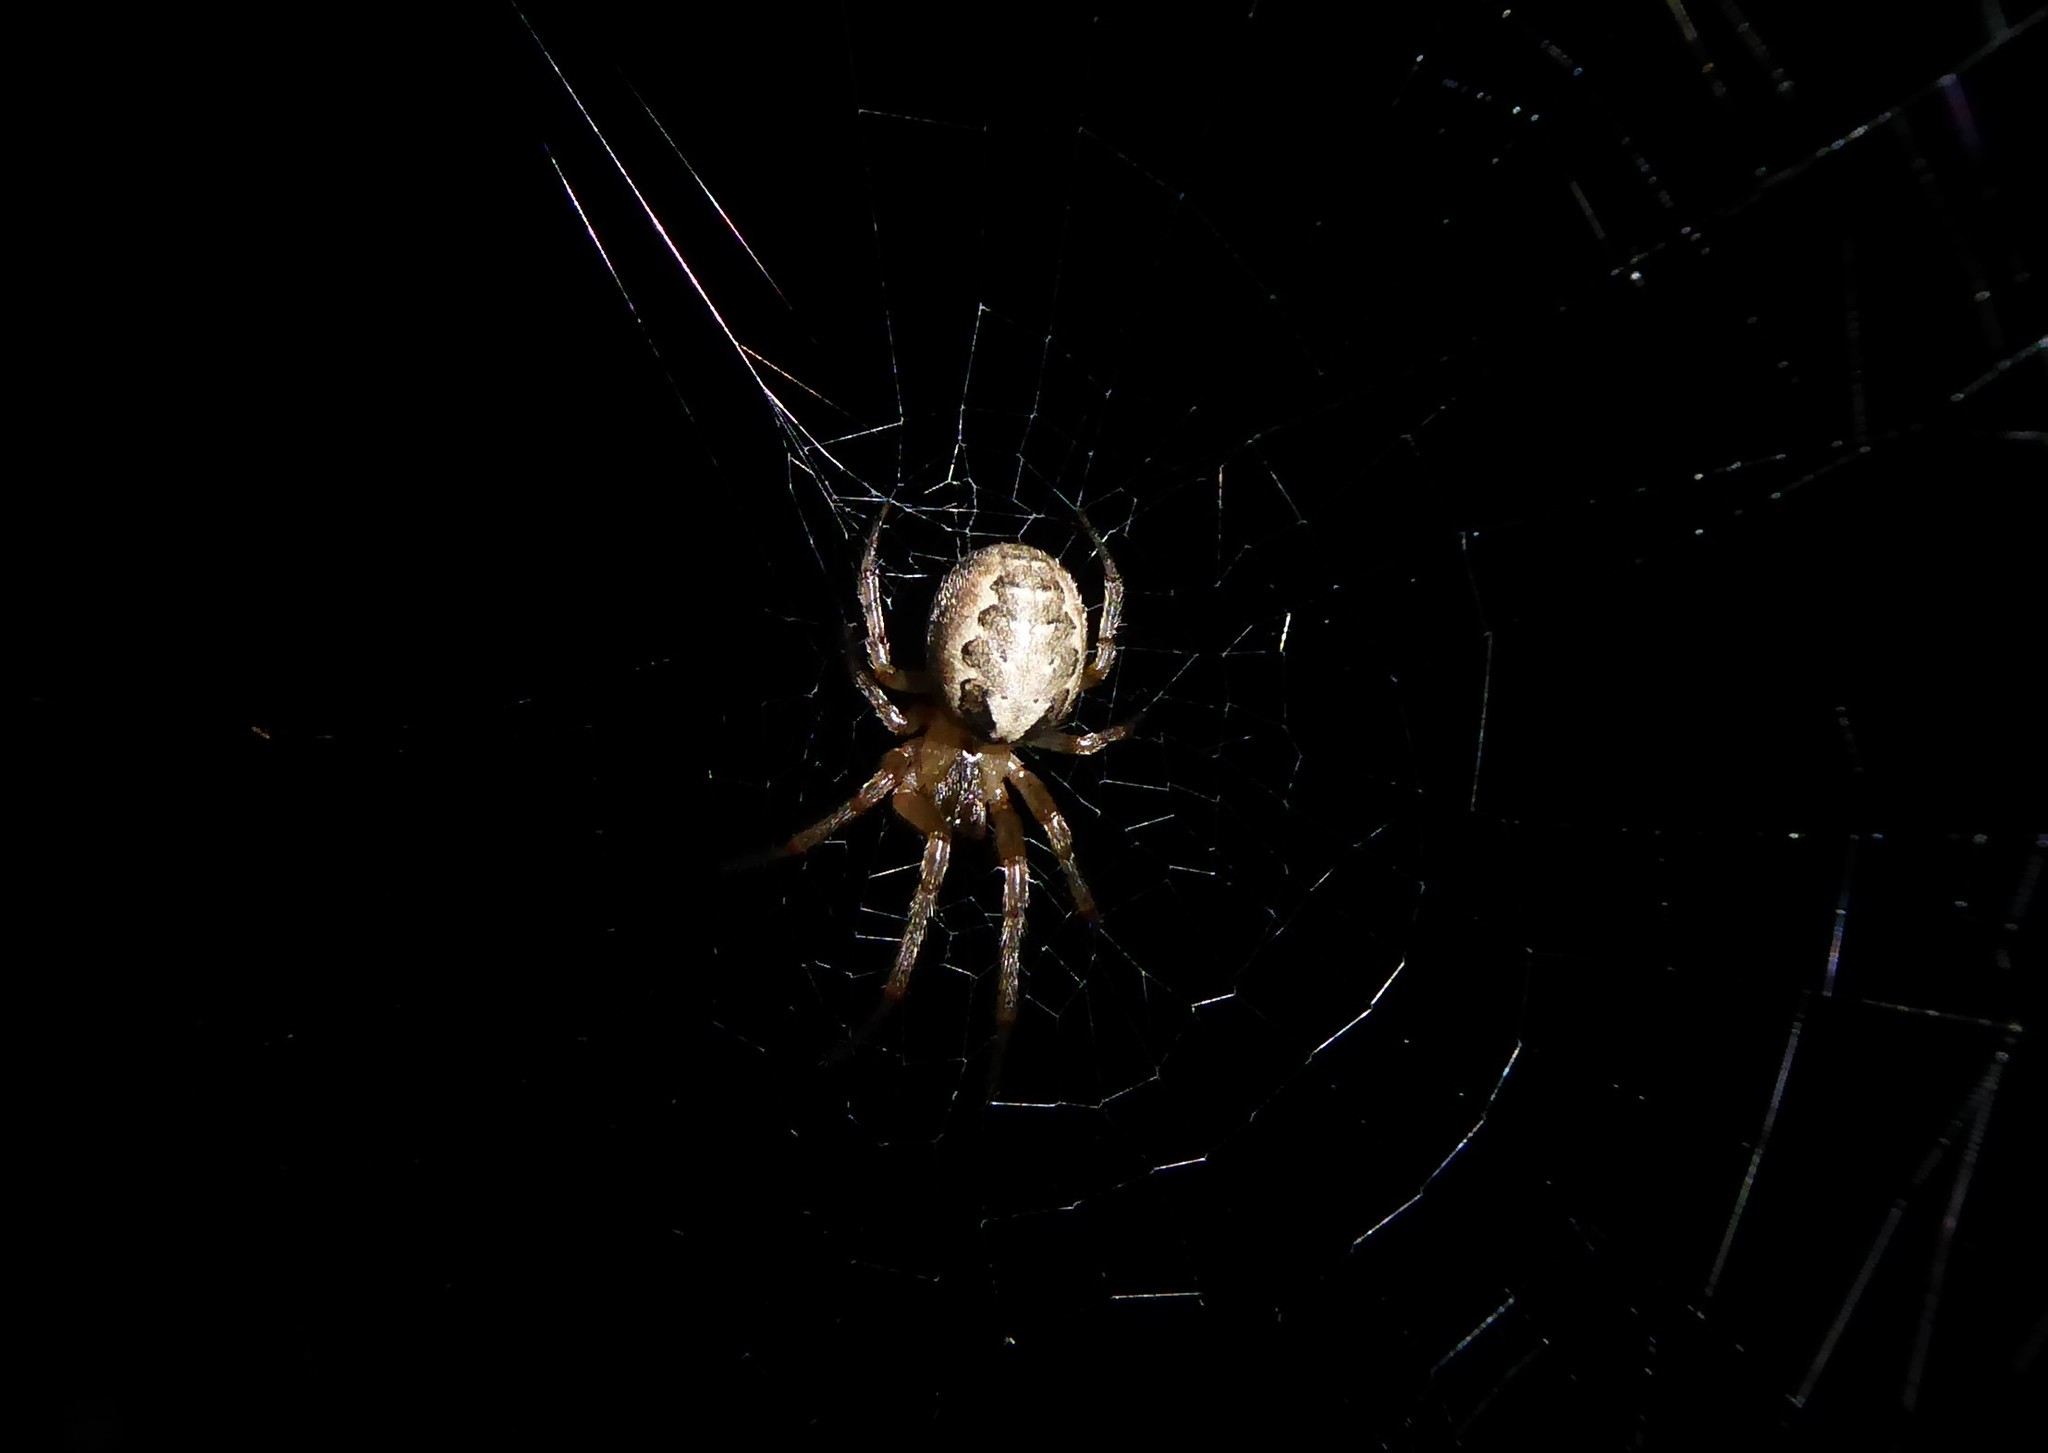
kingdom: Animalia
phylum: Arthropoda
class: Arachnida
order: Araneae
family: Araneidae
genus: Zygiella
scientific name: Zygiella x-notata
